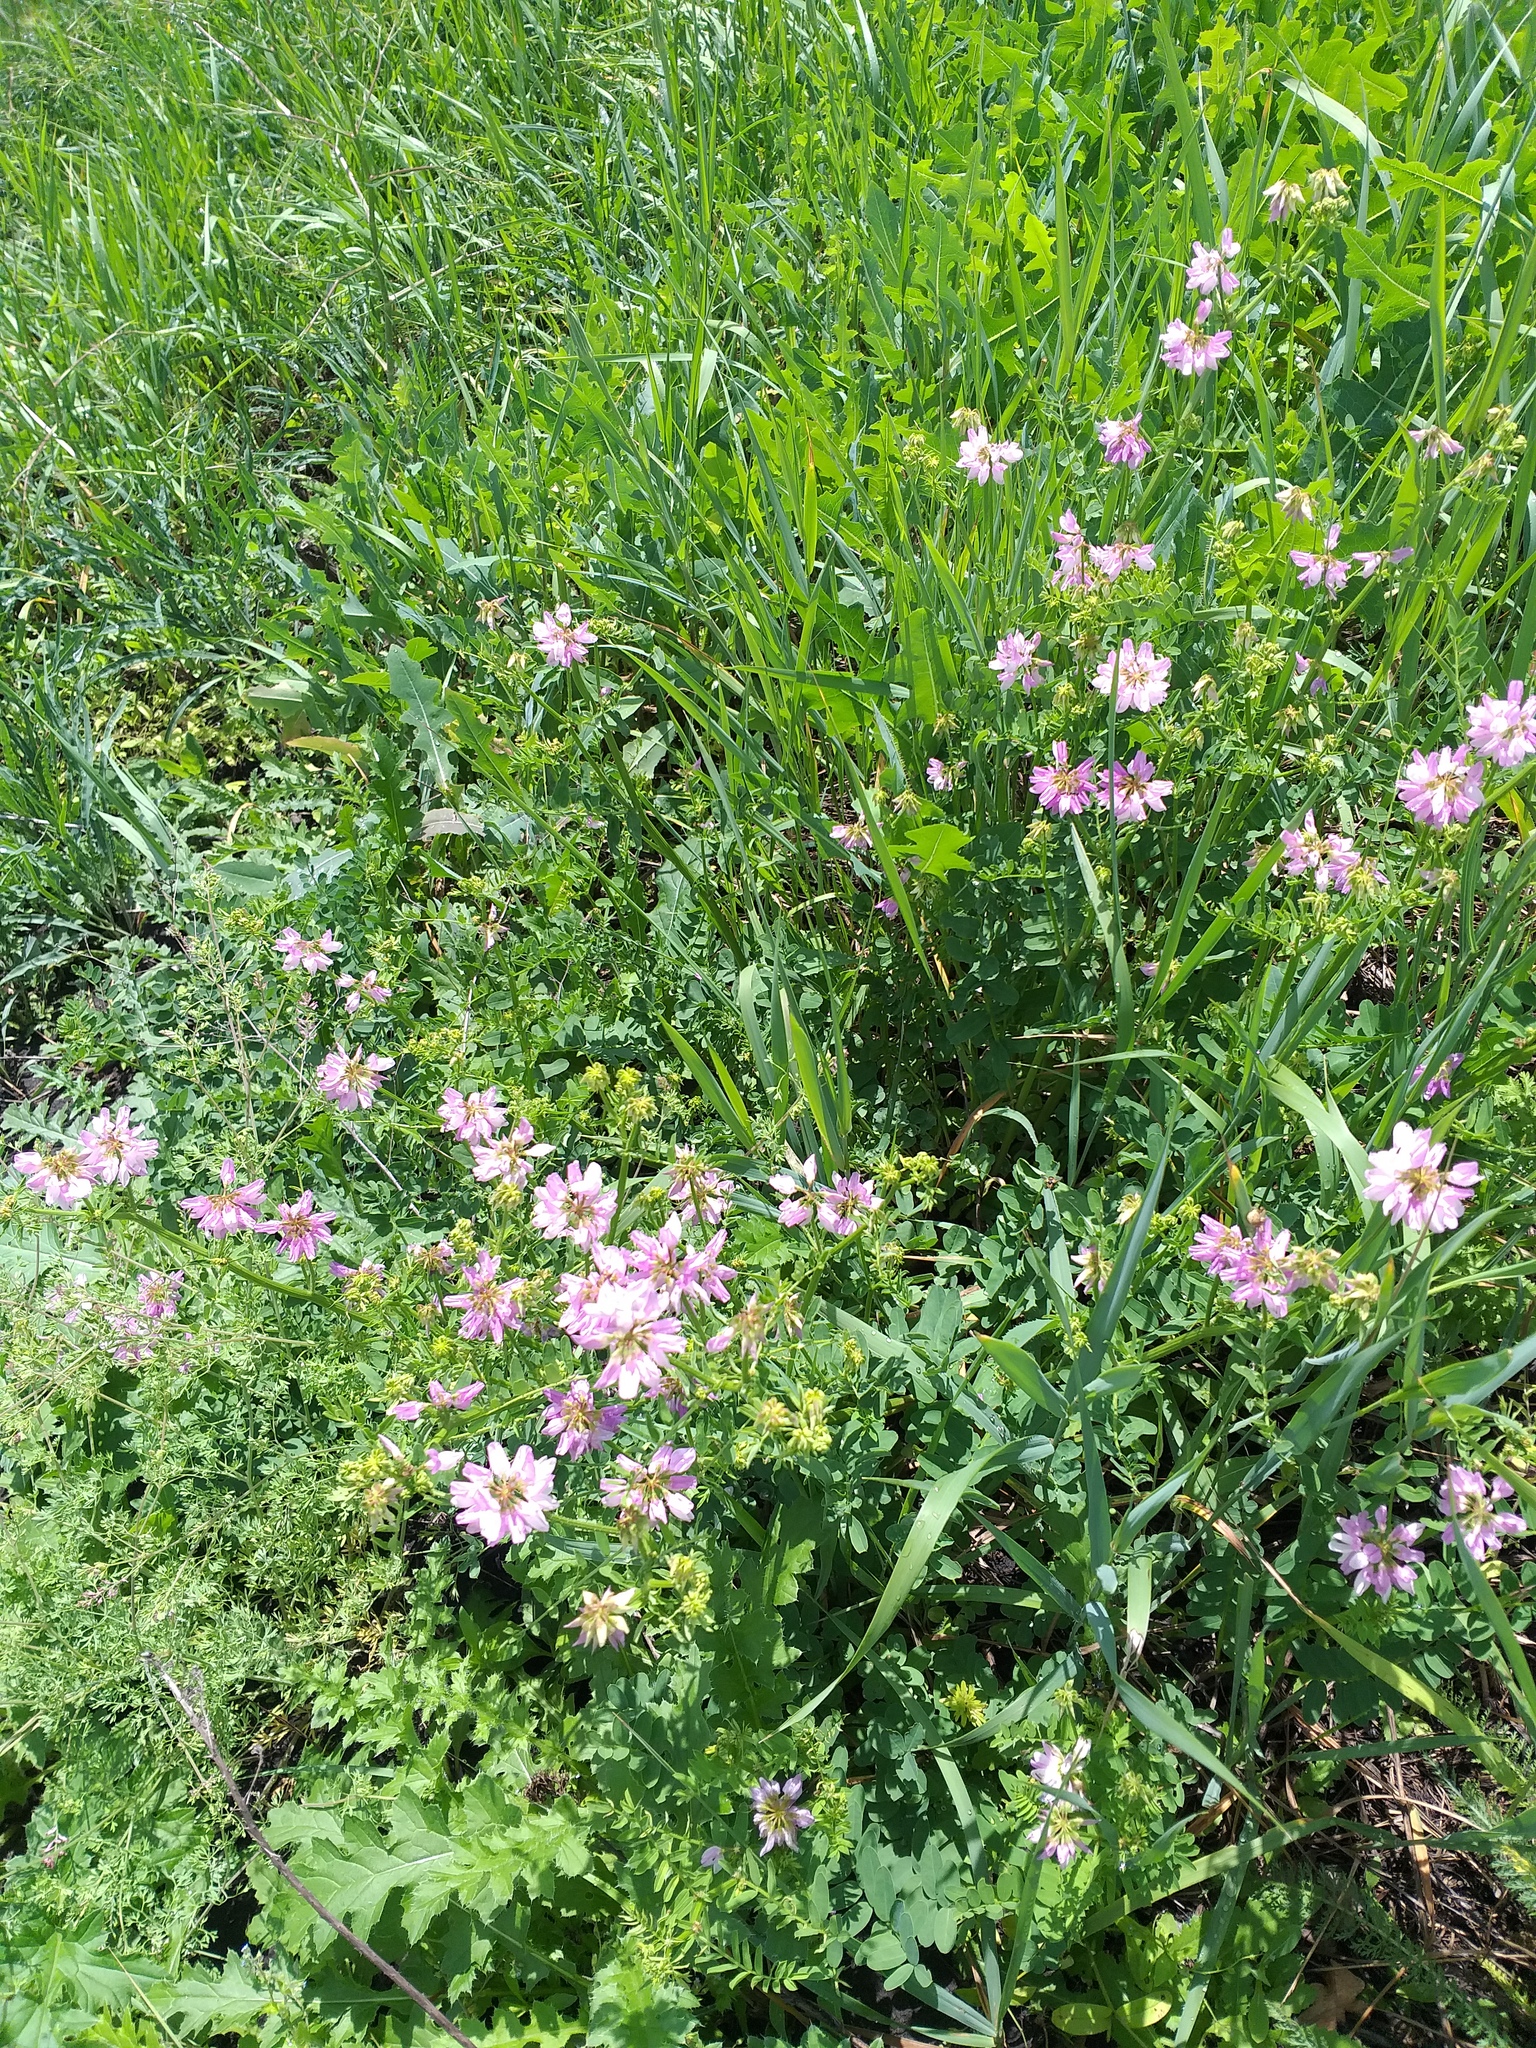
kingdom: Plantae
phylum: Tracheophyta
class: Magnoliopsida
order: Fabales
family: Fabaceae
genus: Coronilla
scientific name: Coronilla varia
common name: Crownvetch
